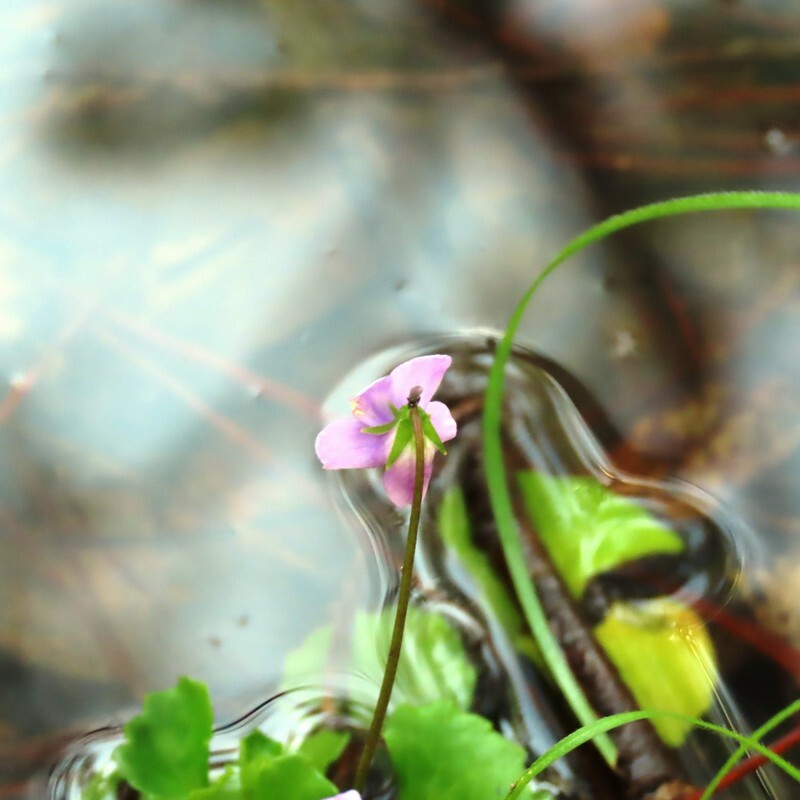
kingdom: Plantae
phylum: Tracheophyta
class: Magnoliopsida
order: Malpighiales
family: Violaceae
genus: Viola
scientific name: Viola hederacea
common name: Australian violet
